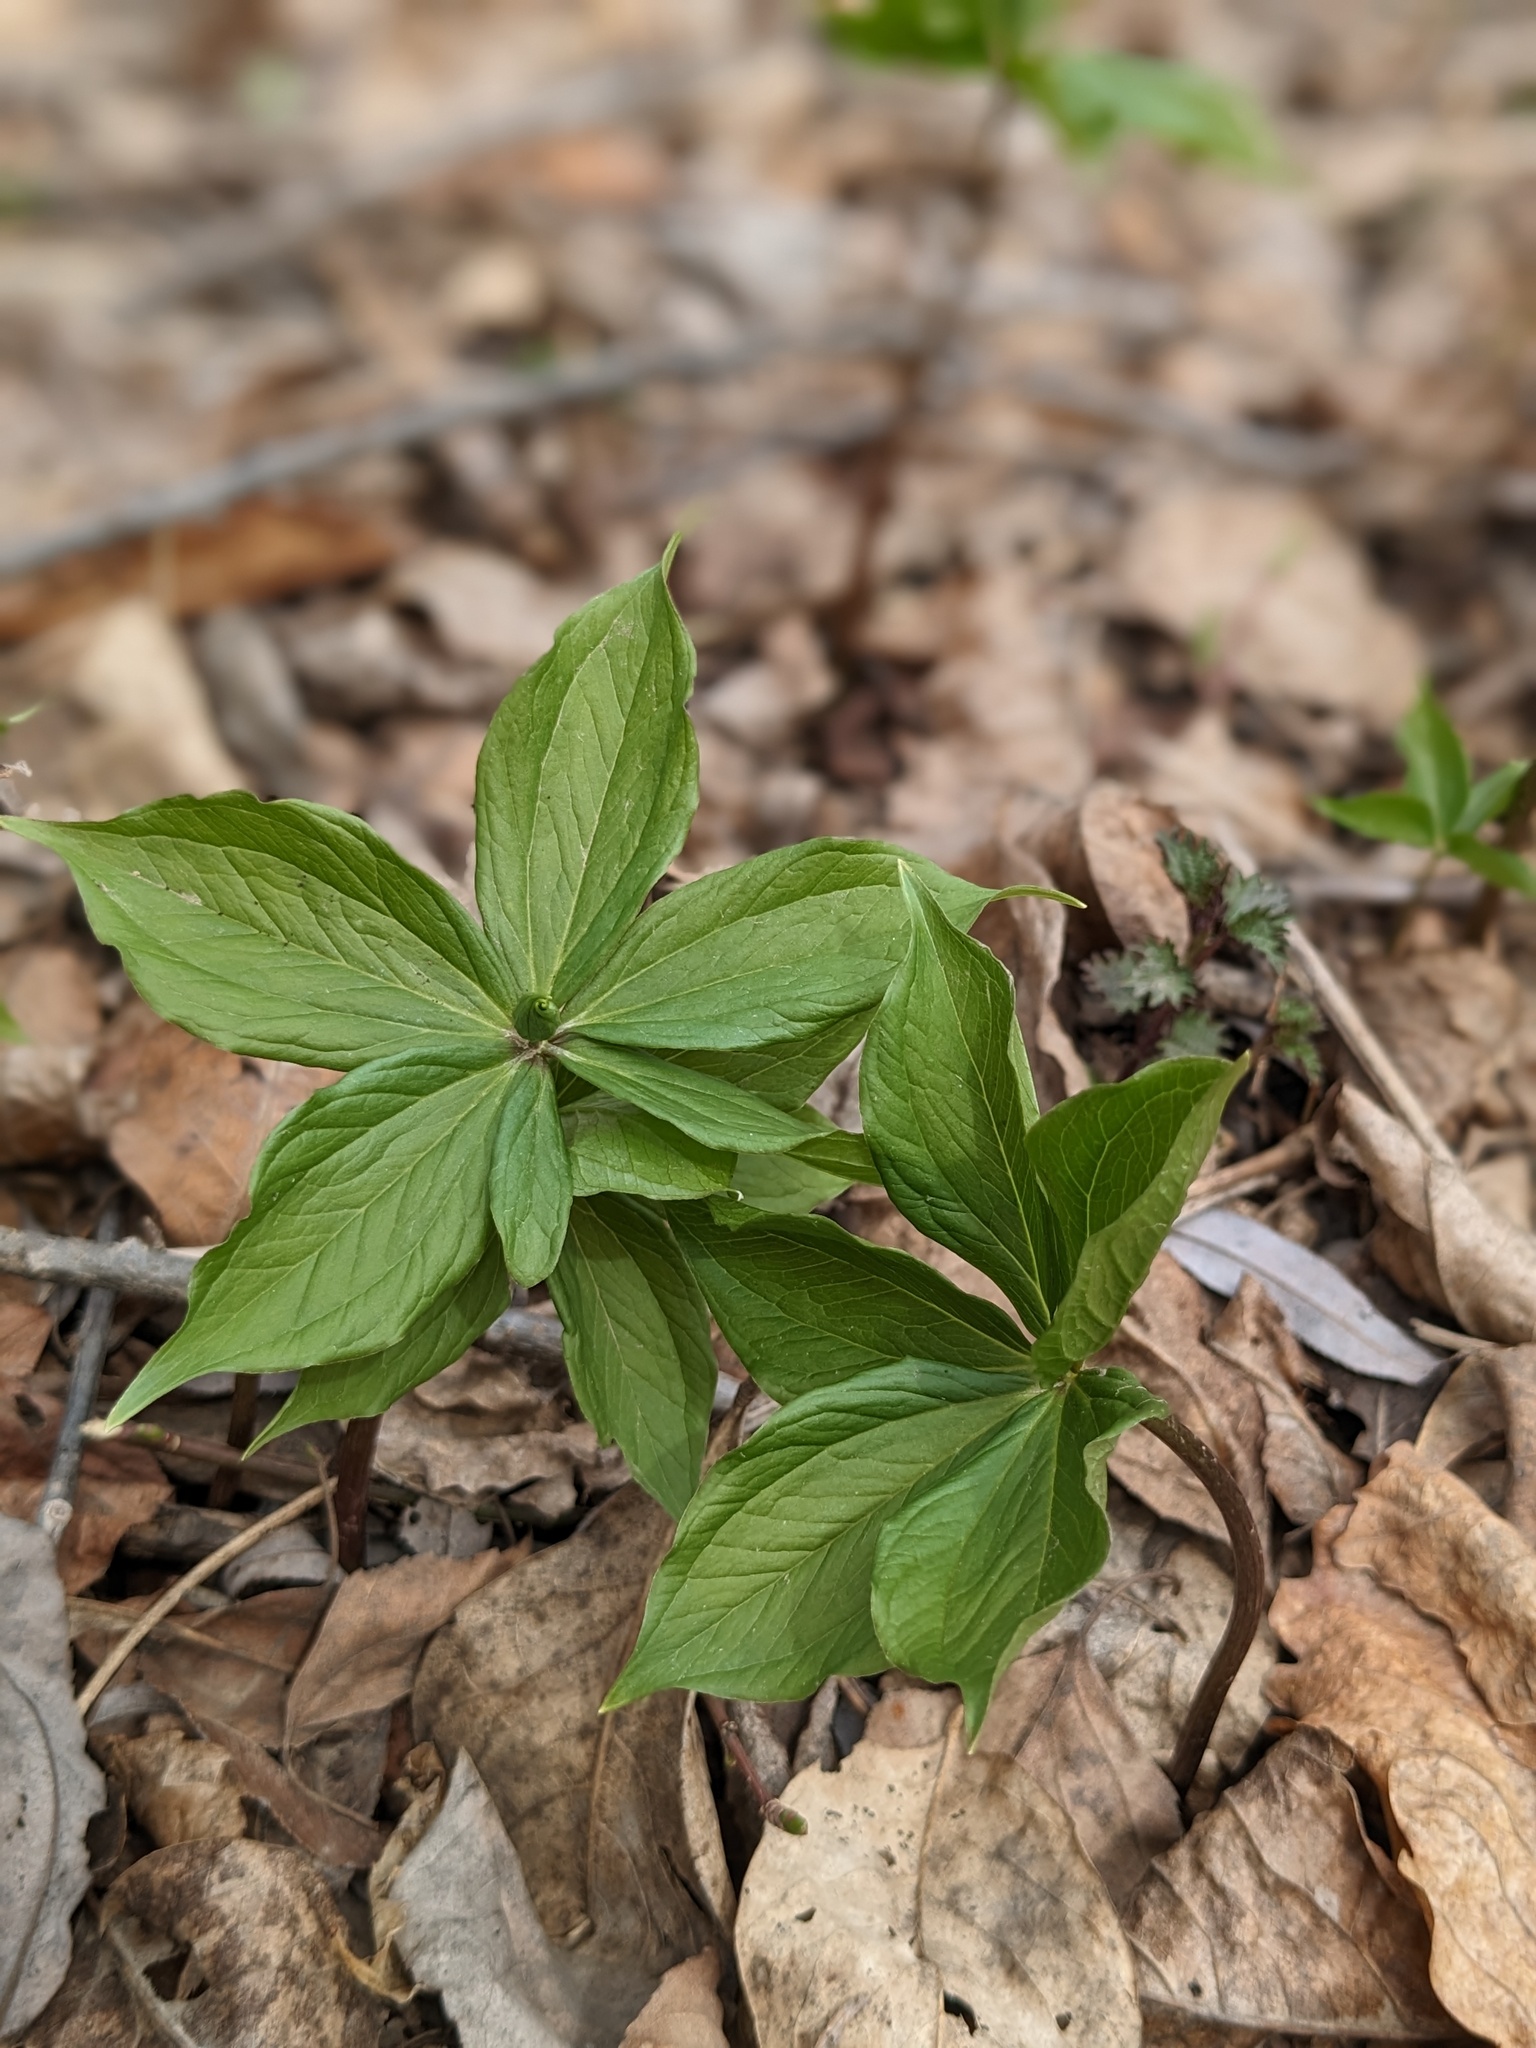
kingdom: Plantae
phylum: Tracheophyta
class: Liliopsida
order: Liliales
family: Melanthiaceae
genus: Paris
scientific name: Paris verticillata
